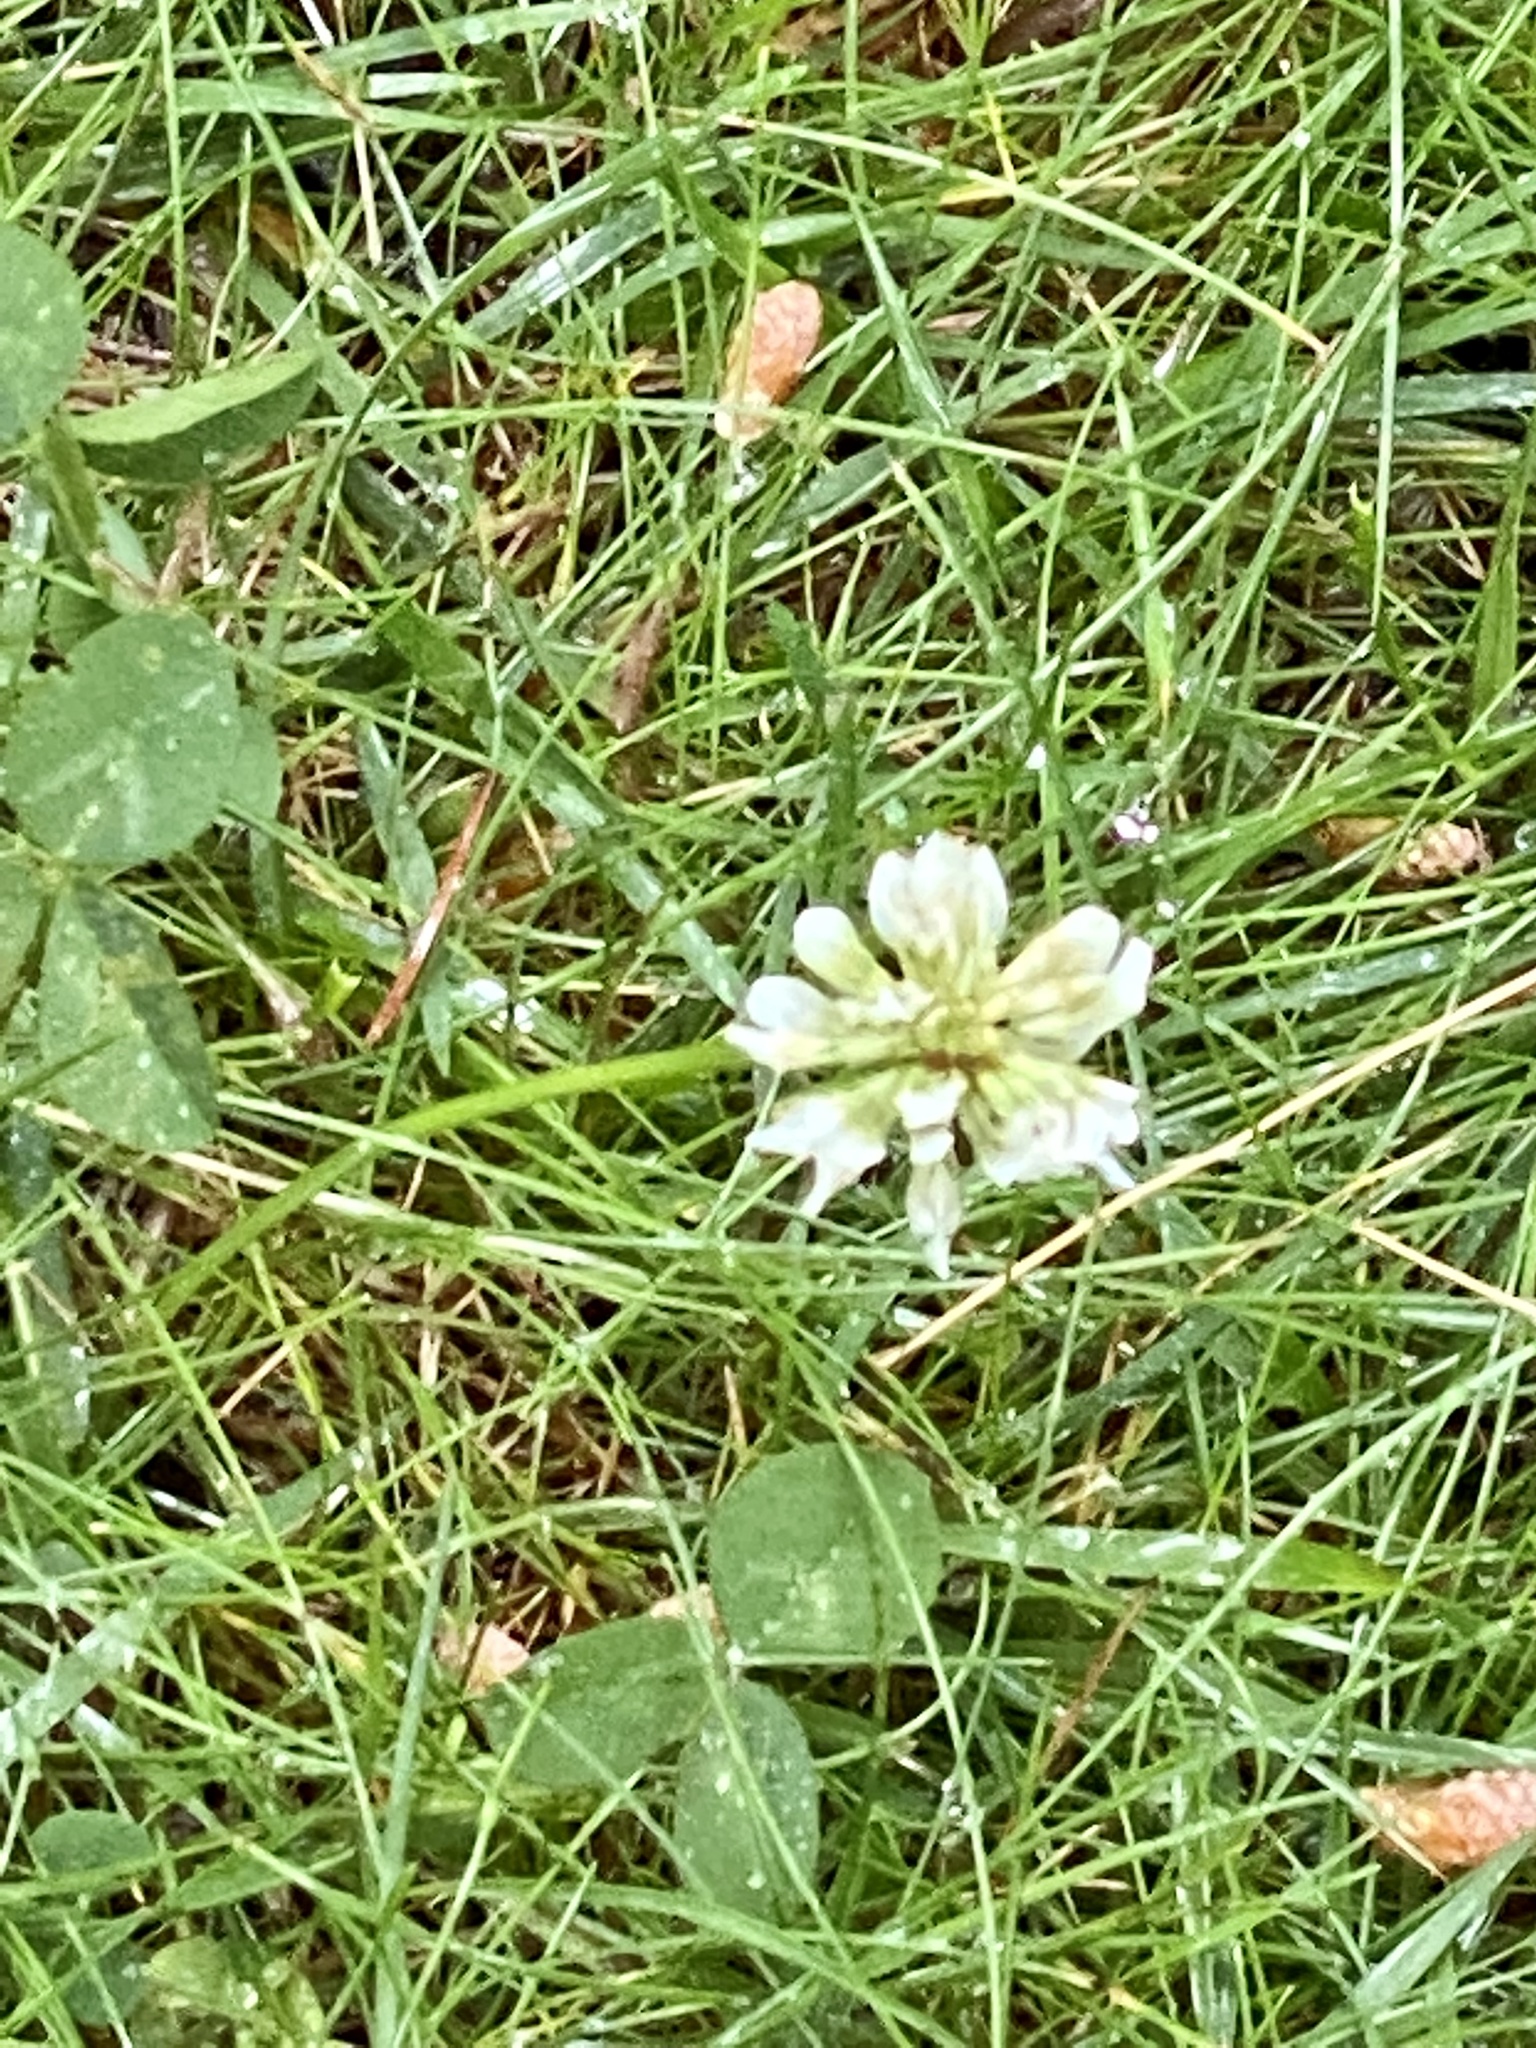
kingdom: Plantae
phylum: Tracheophyta
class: Magnoliopsida
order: Fabales
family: Fabaceae
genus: Trifolium
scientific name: Trifolium repens
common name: White clover
